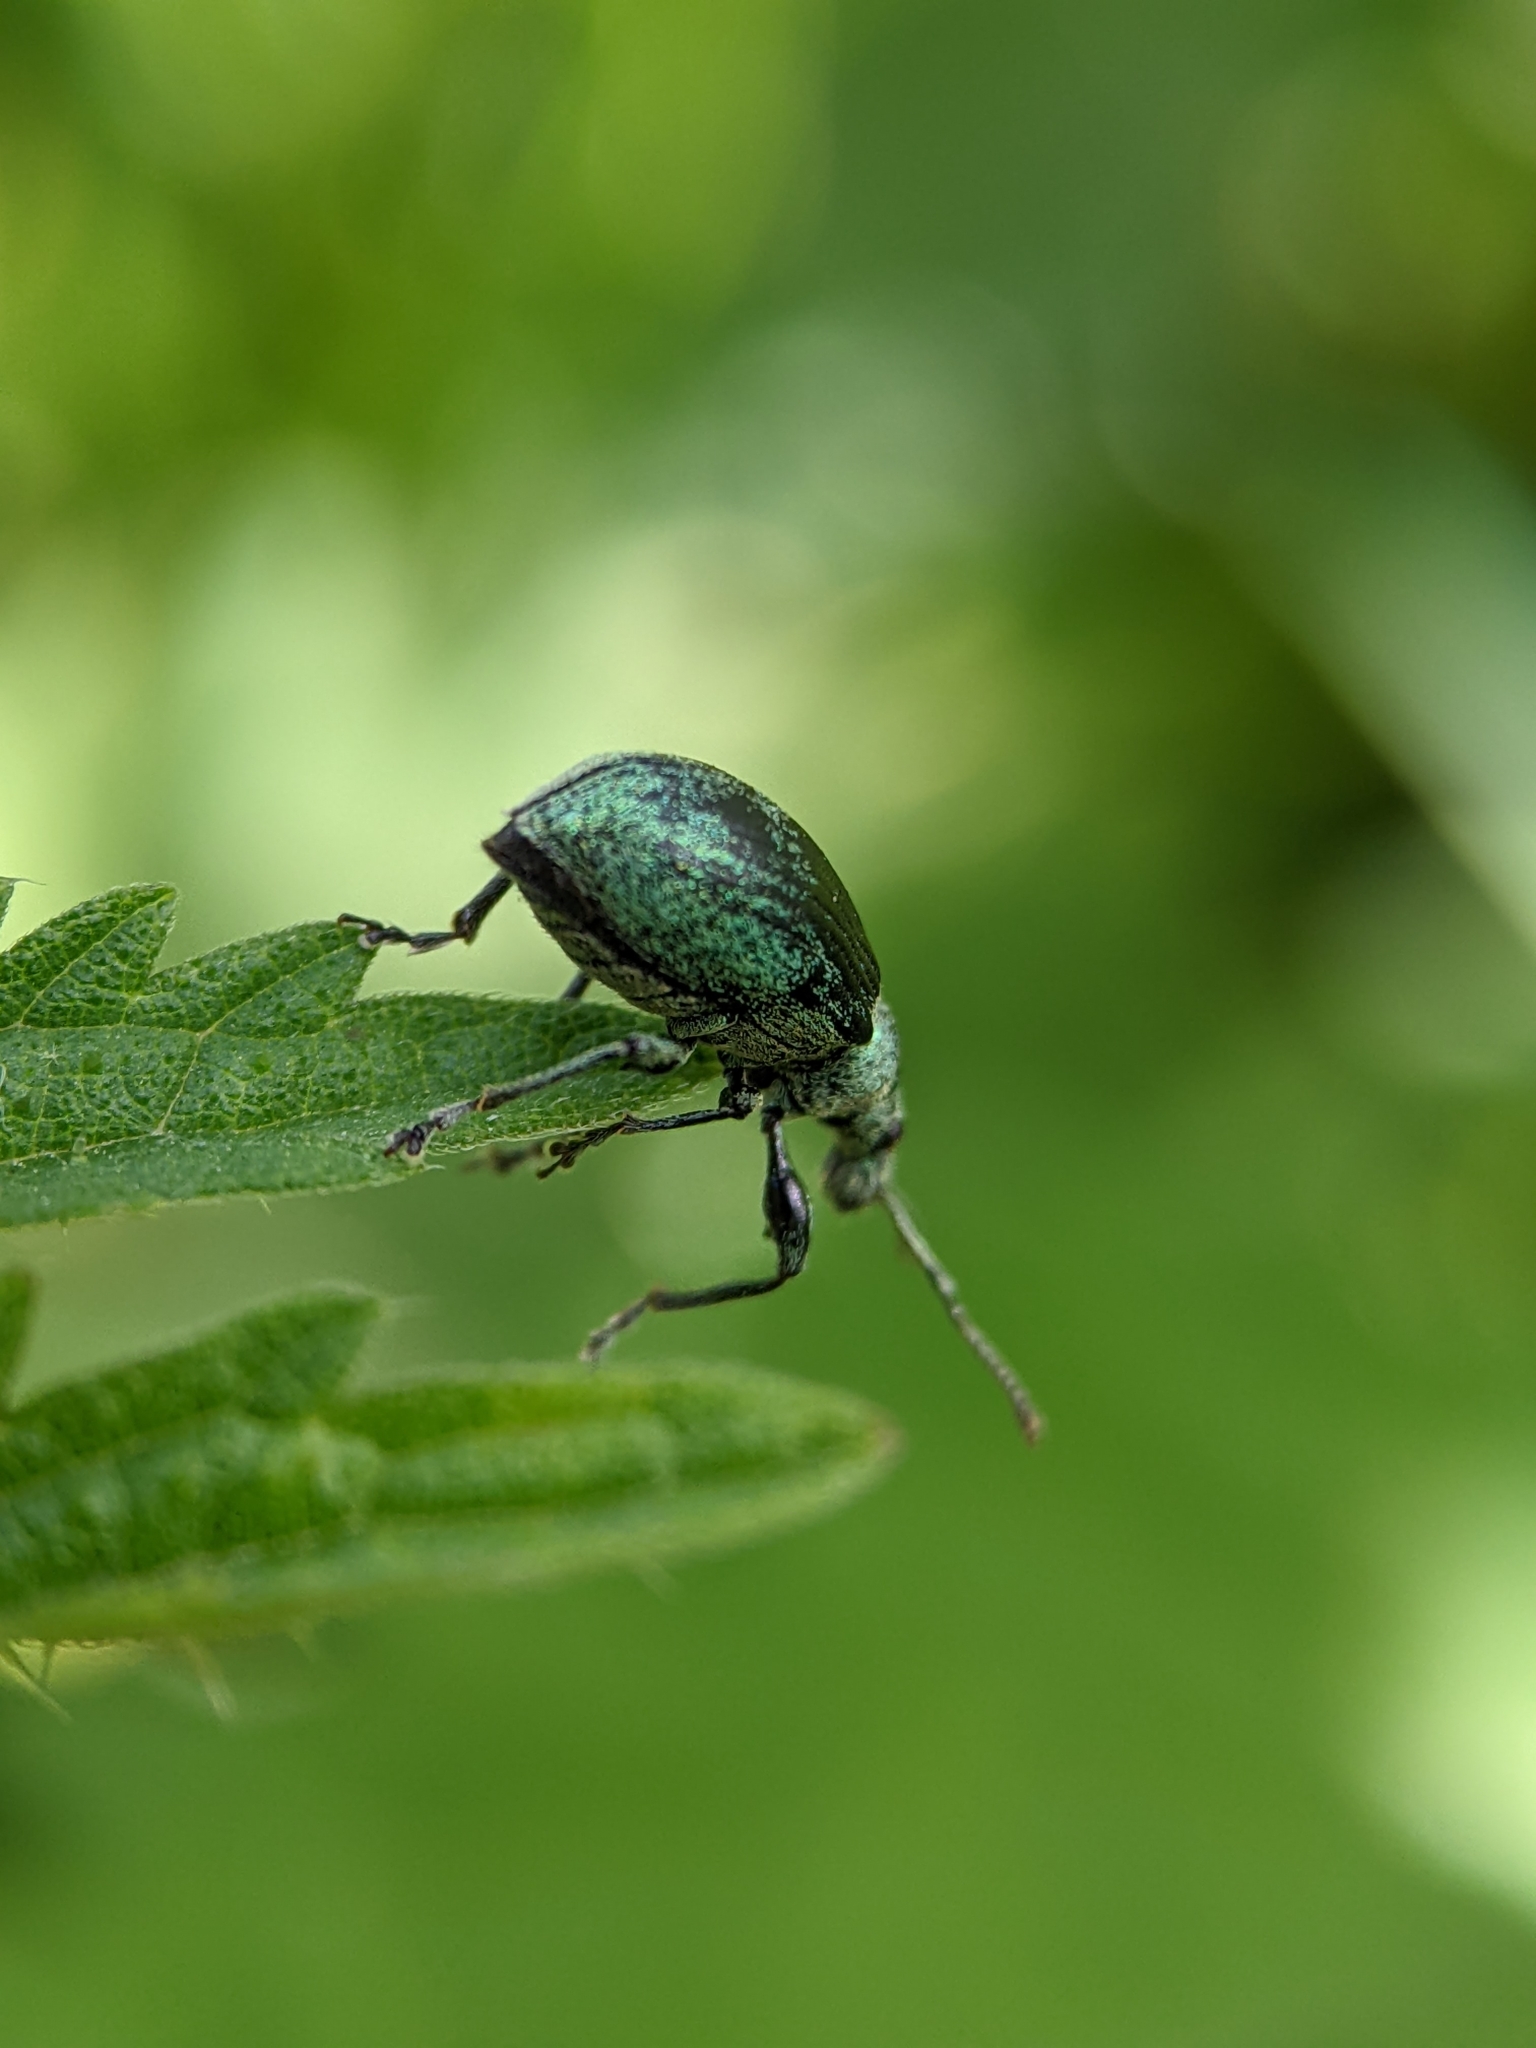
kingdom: Animalia
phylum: Arthropoda
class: Insecta
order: Coleoptera
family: Curculionidae
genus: Phyllobius
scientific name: Phyllobius pomaceus
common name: Green nettle weevil
